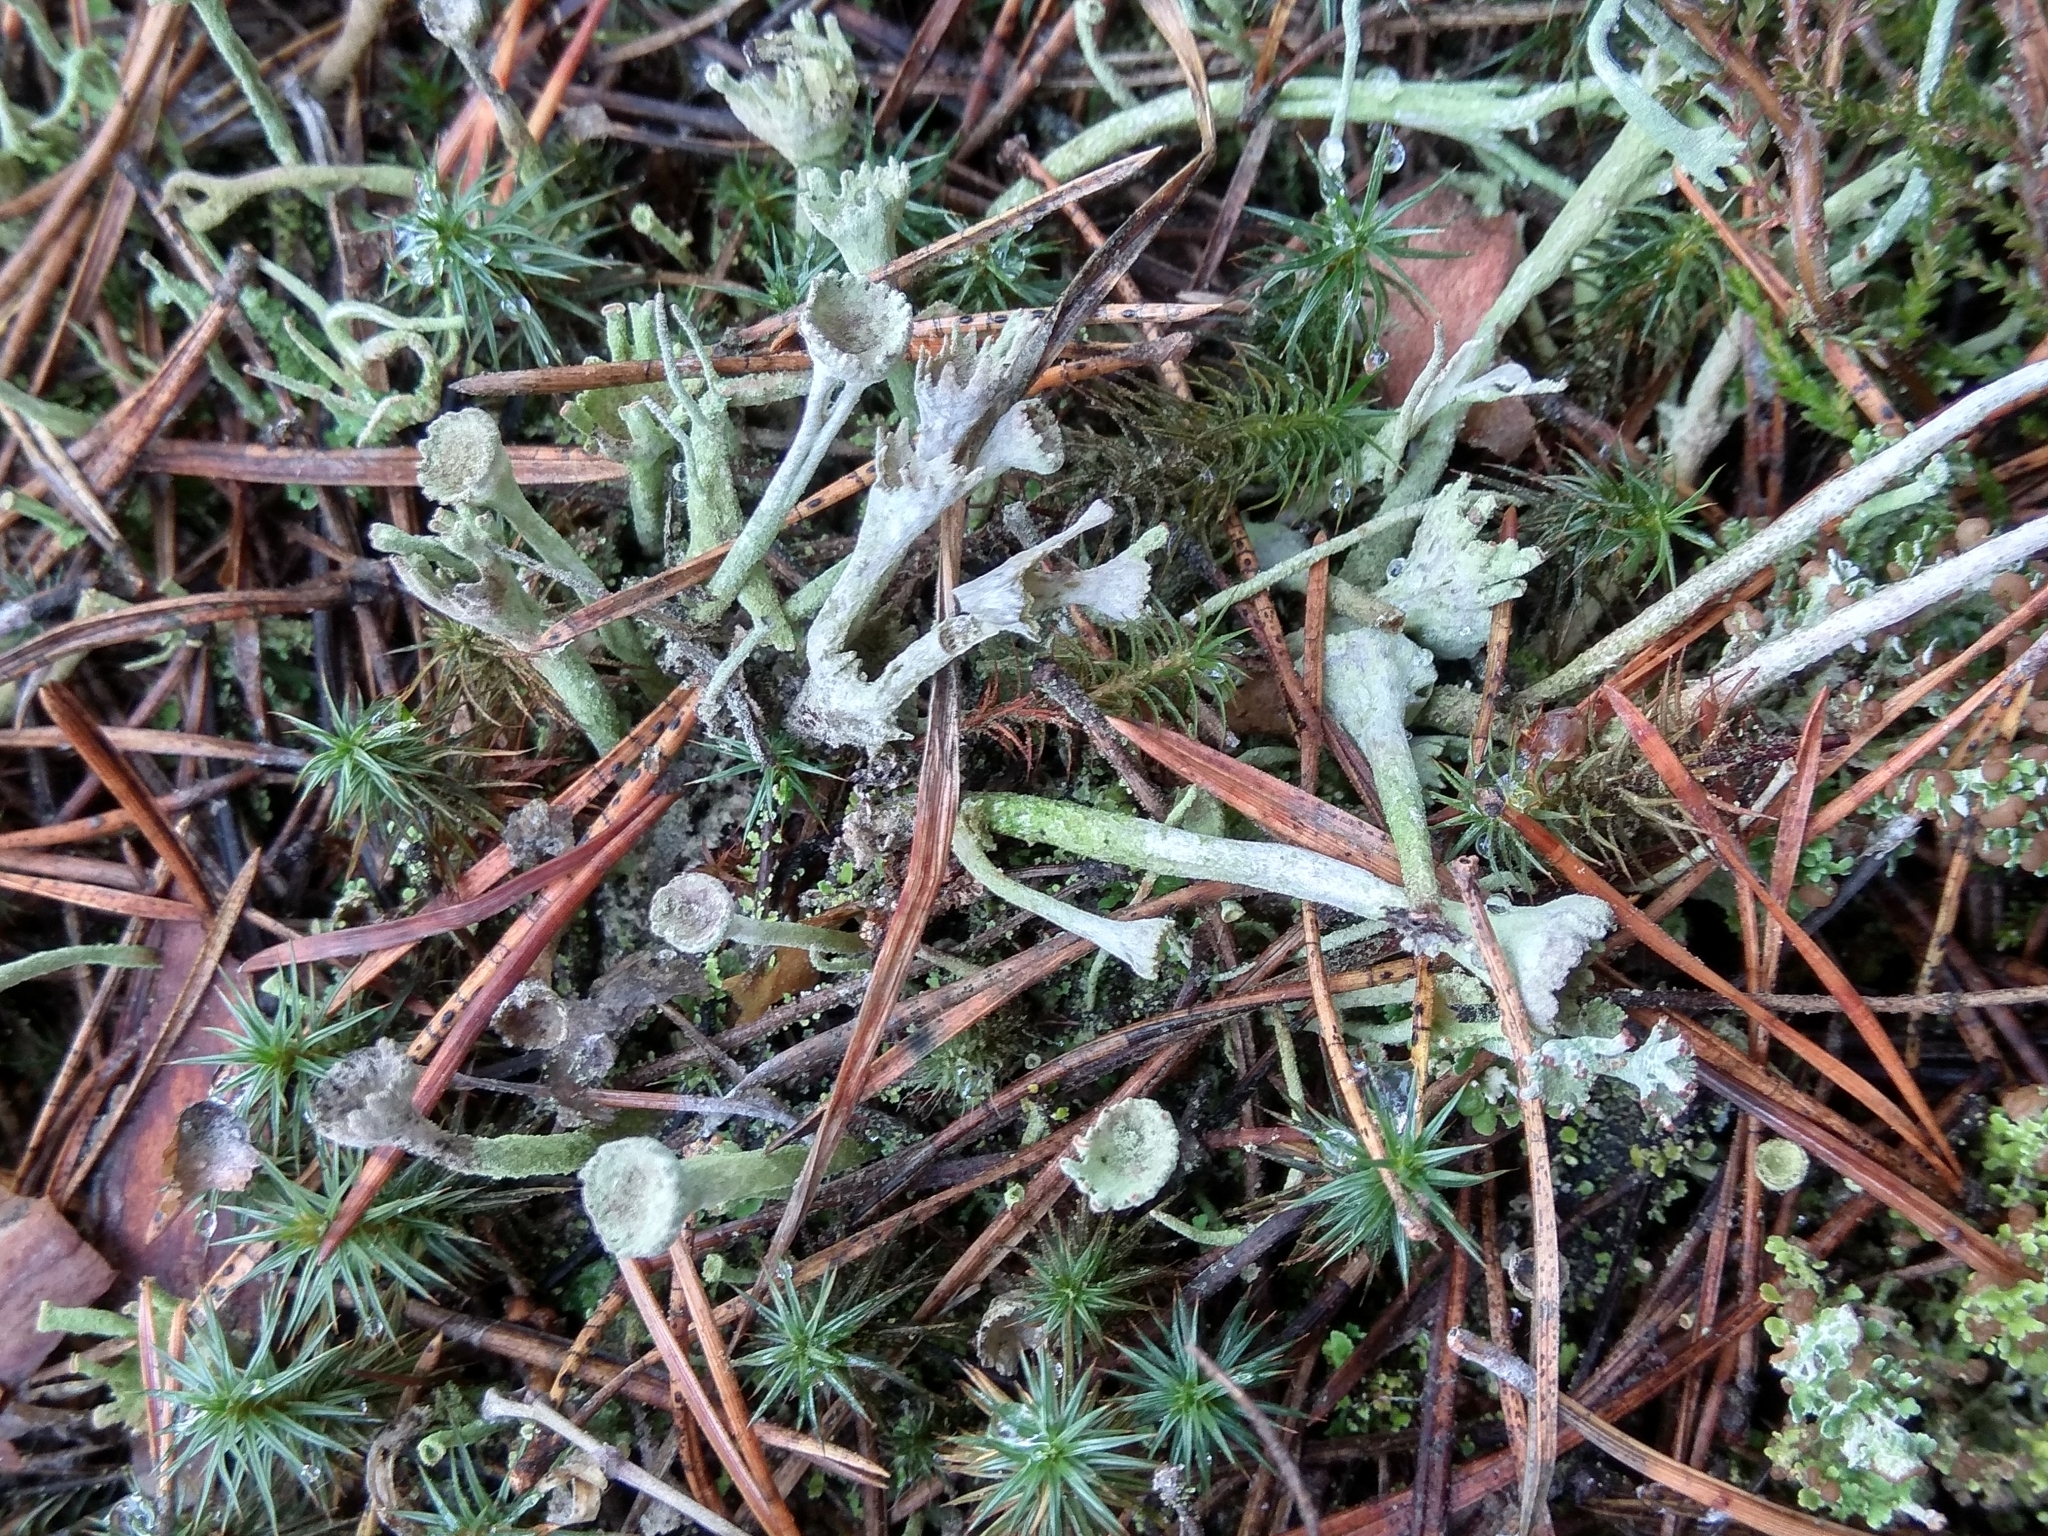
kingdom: Fungi
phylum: Ascomycota
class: Lecanoromycetes
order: Lecanorales
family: Cladoniaceae
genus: Cladonia
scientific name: Cladonia deformis
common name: Lesser sulphur-cup lichen
